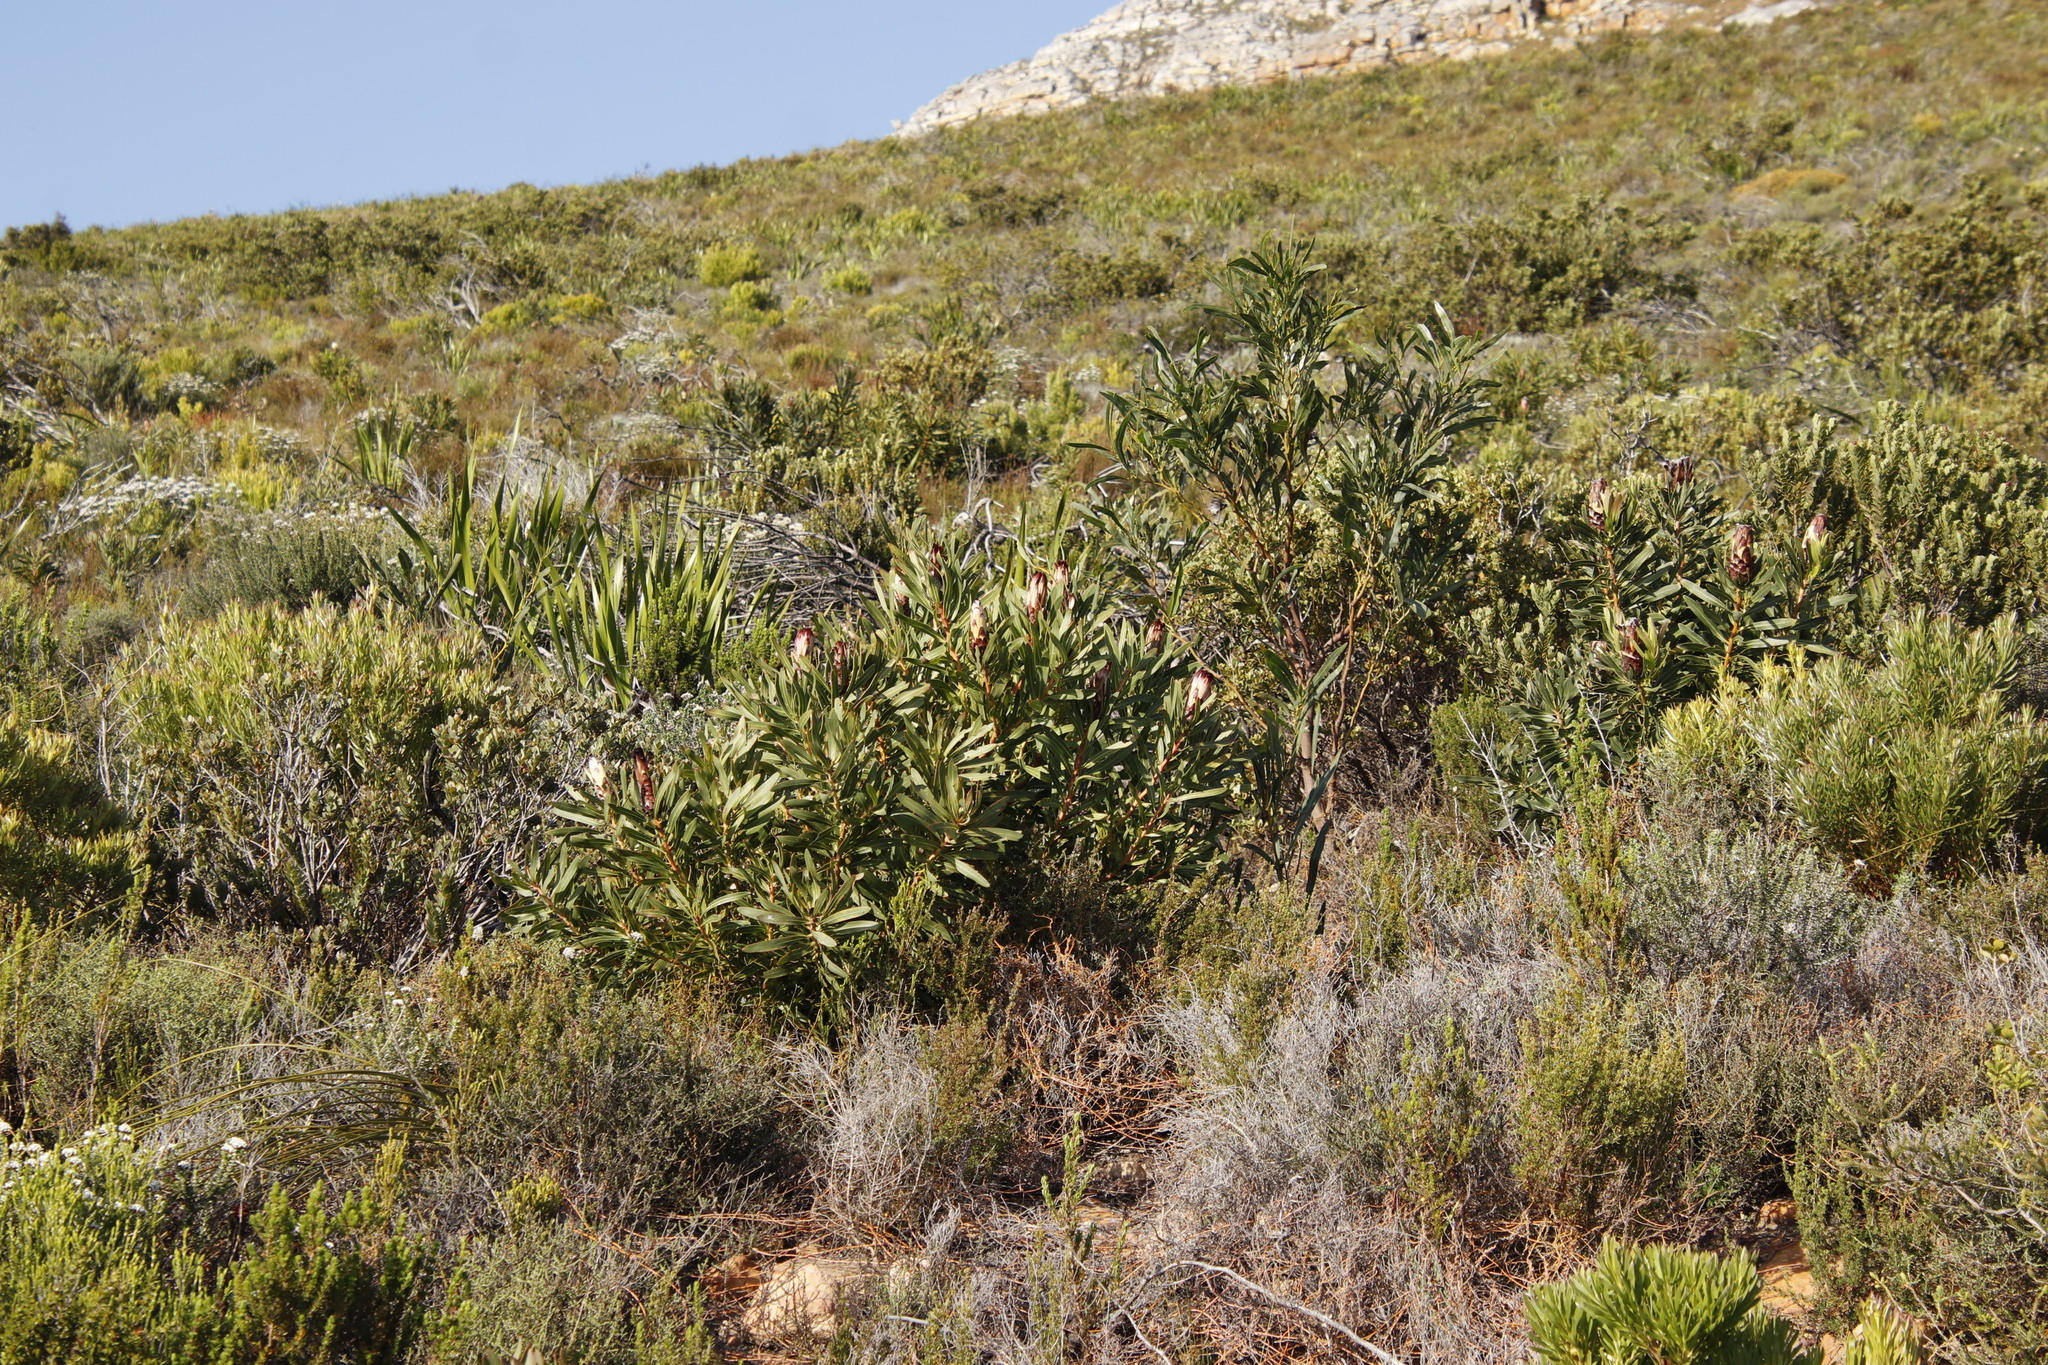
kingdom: Plantae
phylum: Tracheophyta
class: Magnoliopsida
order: Proteales
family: Proteaceae
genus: Protea
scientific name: Protea lepidocarpodendron
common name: Black-bearded protea
